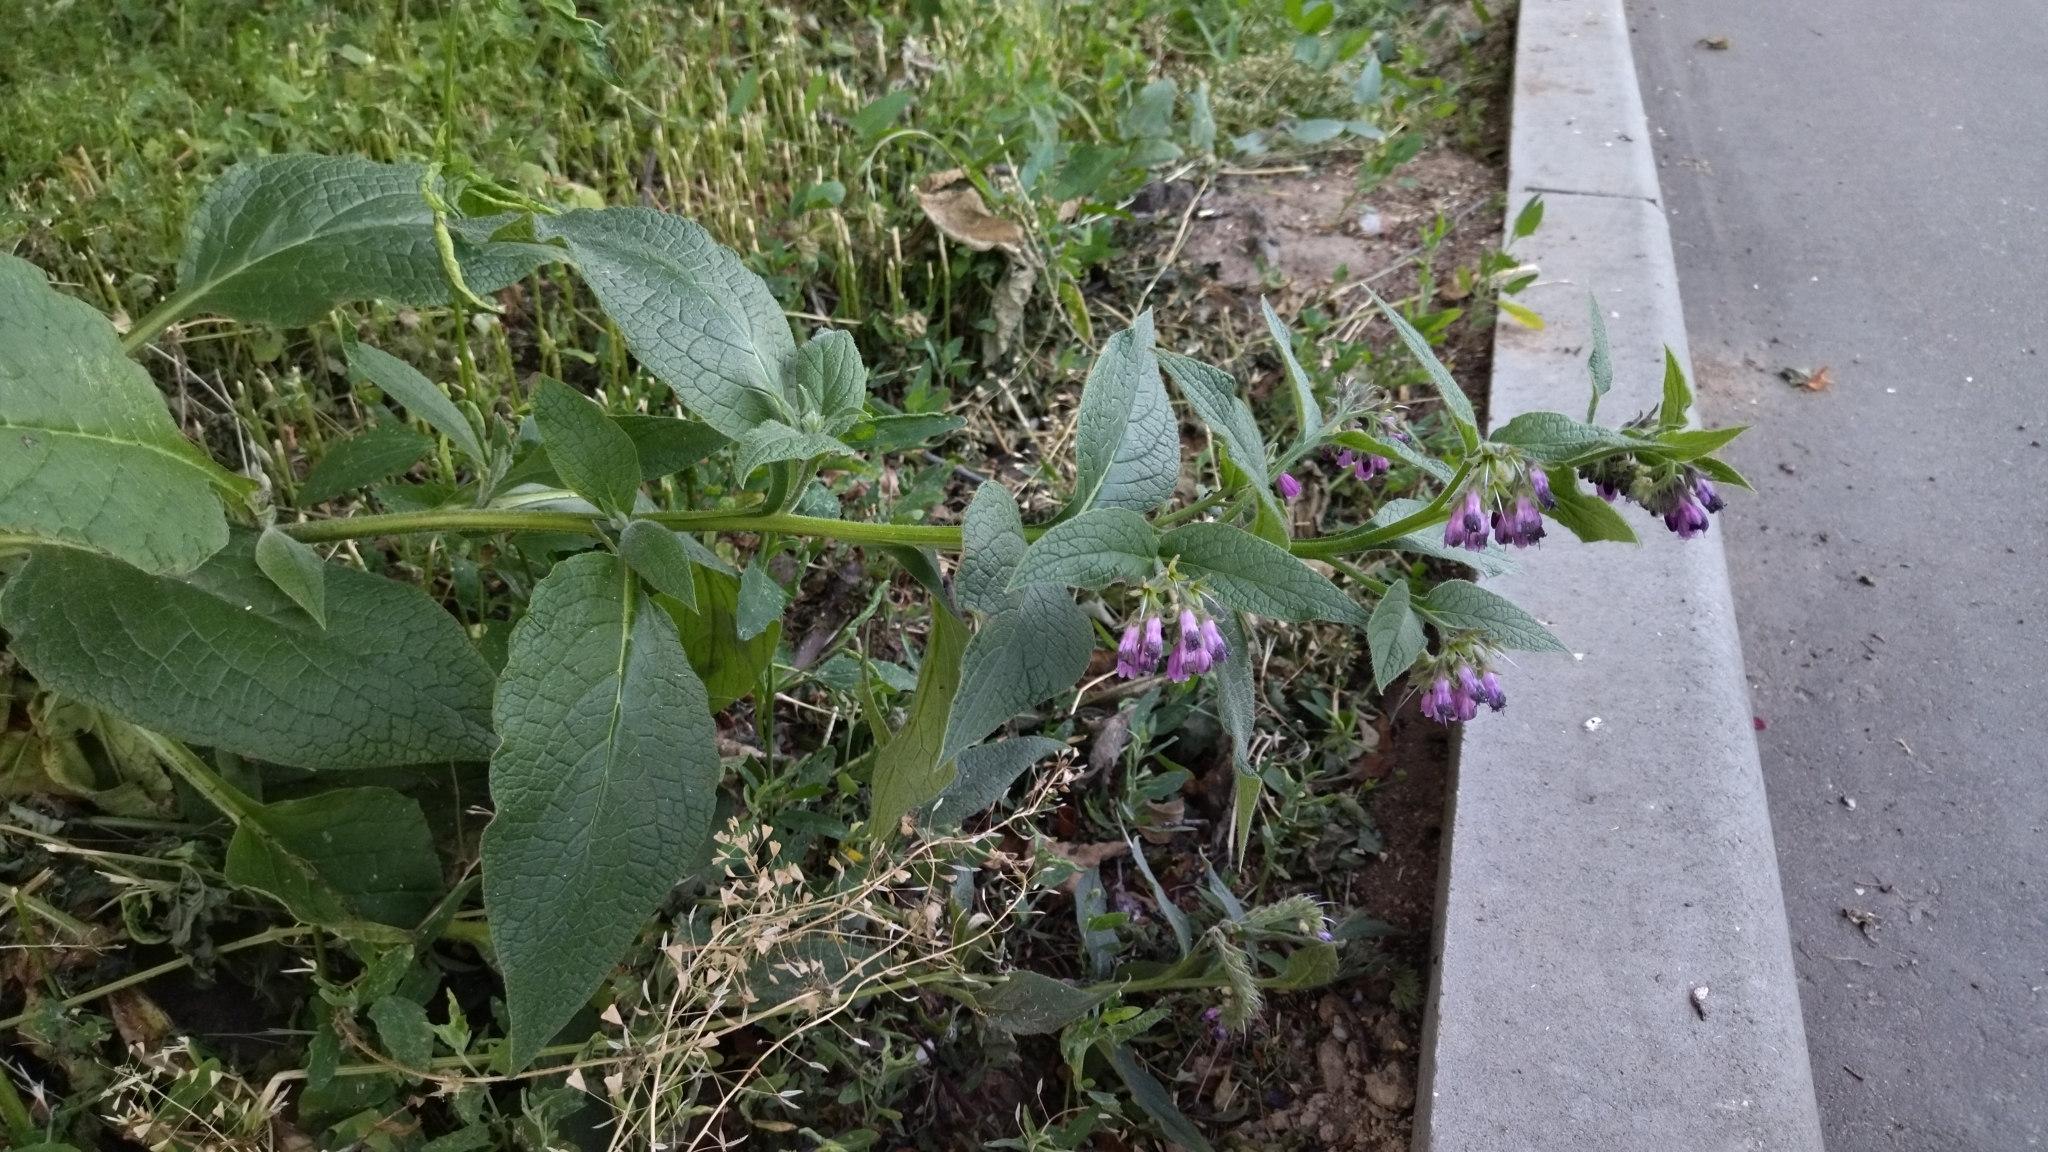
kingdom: Plantae
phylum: Tracheophyta
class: Magnoliopsida
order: Boraginales
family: Boraginaceae
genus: Symphytum
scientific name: Symphytum officinale
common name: Common comfrey
